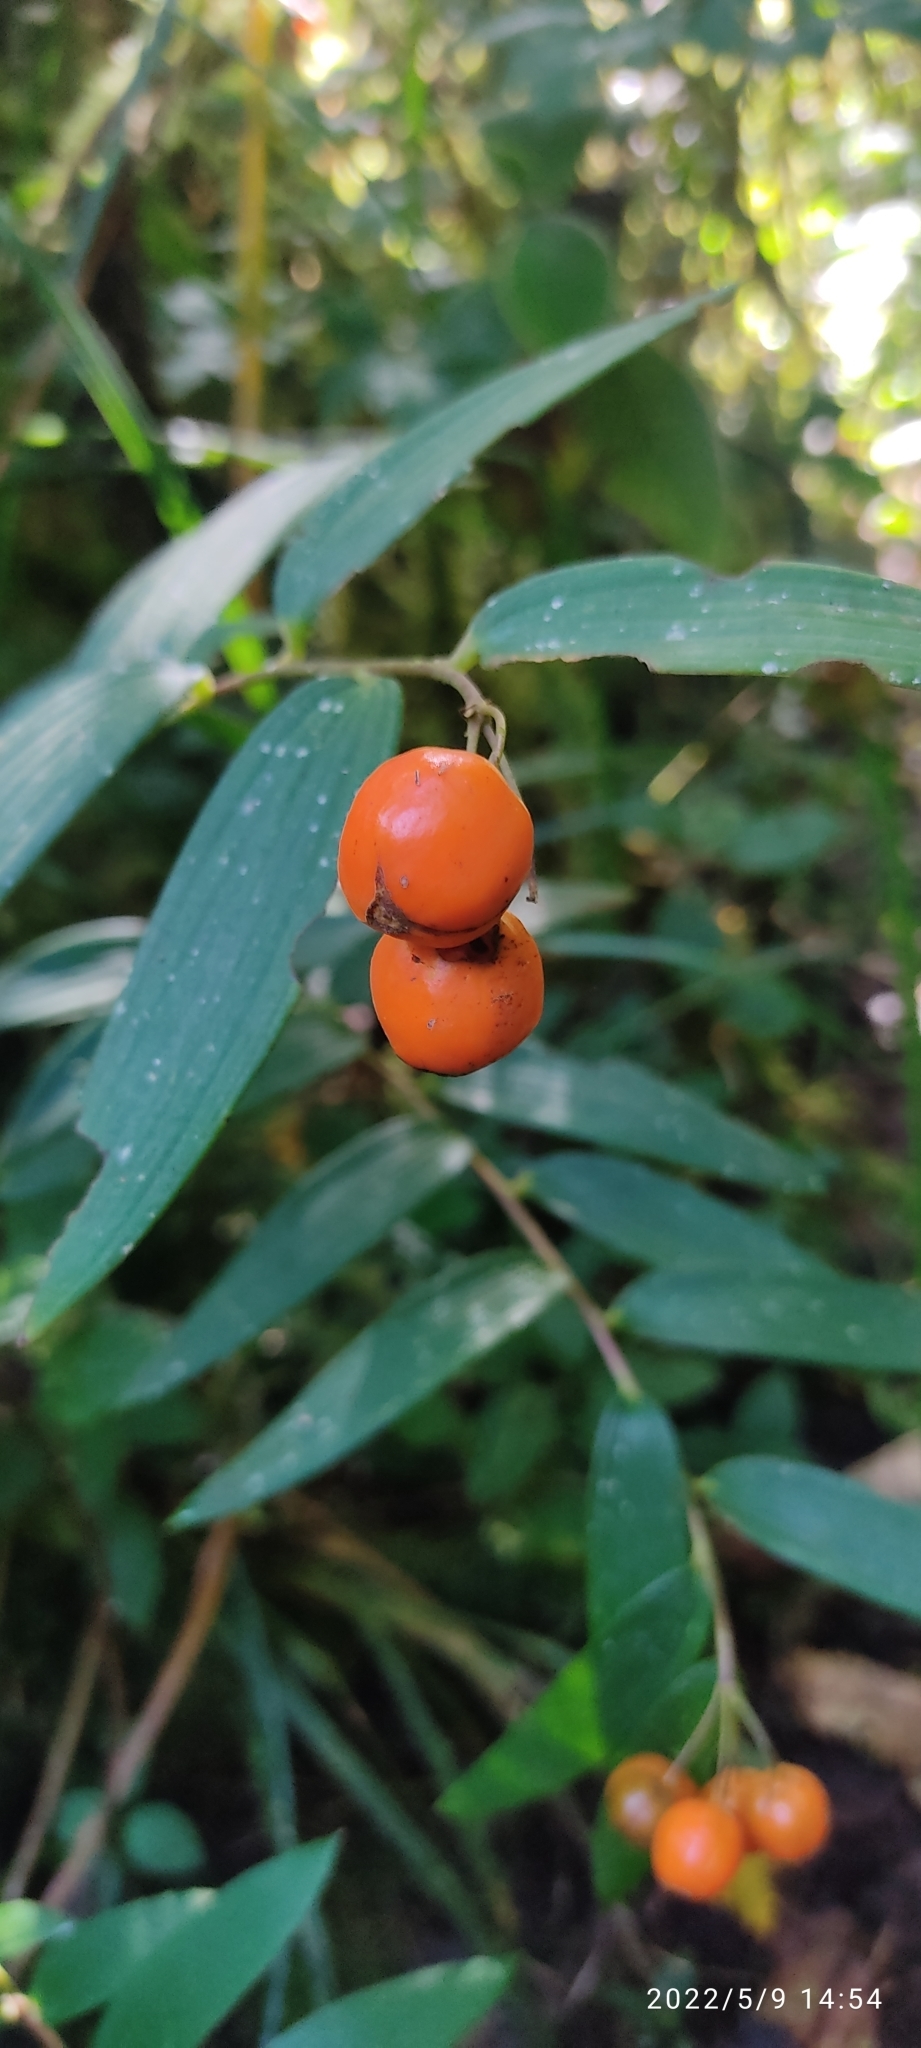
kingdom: Plantae
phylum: Tracheophyta
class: Liliopsida
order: Liliales
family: Alstroemeriaceae
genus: Bomarea
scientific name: Bomarea distichifolia
